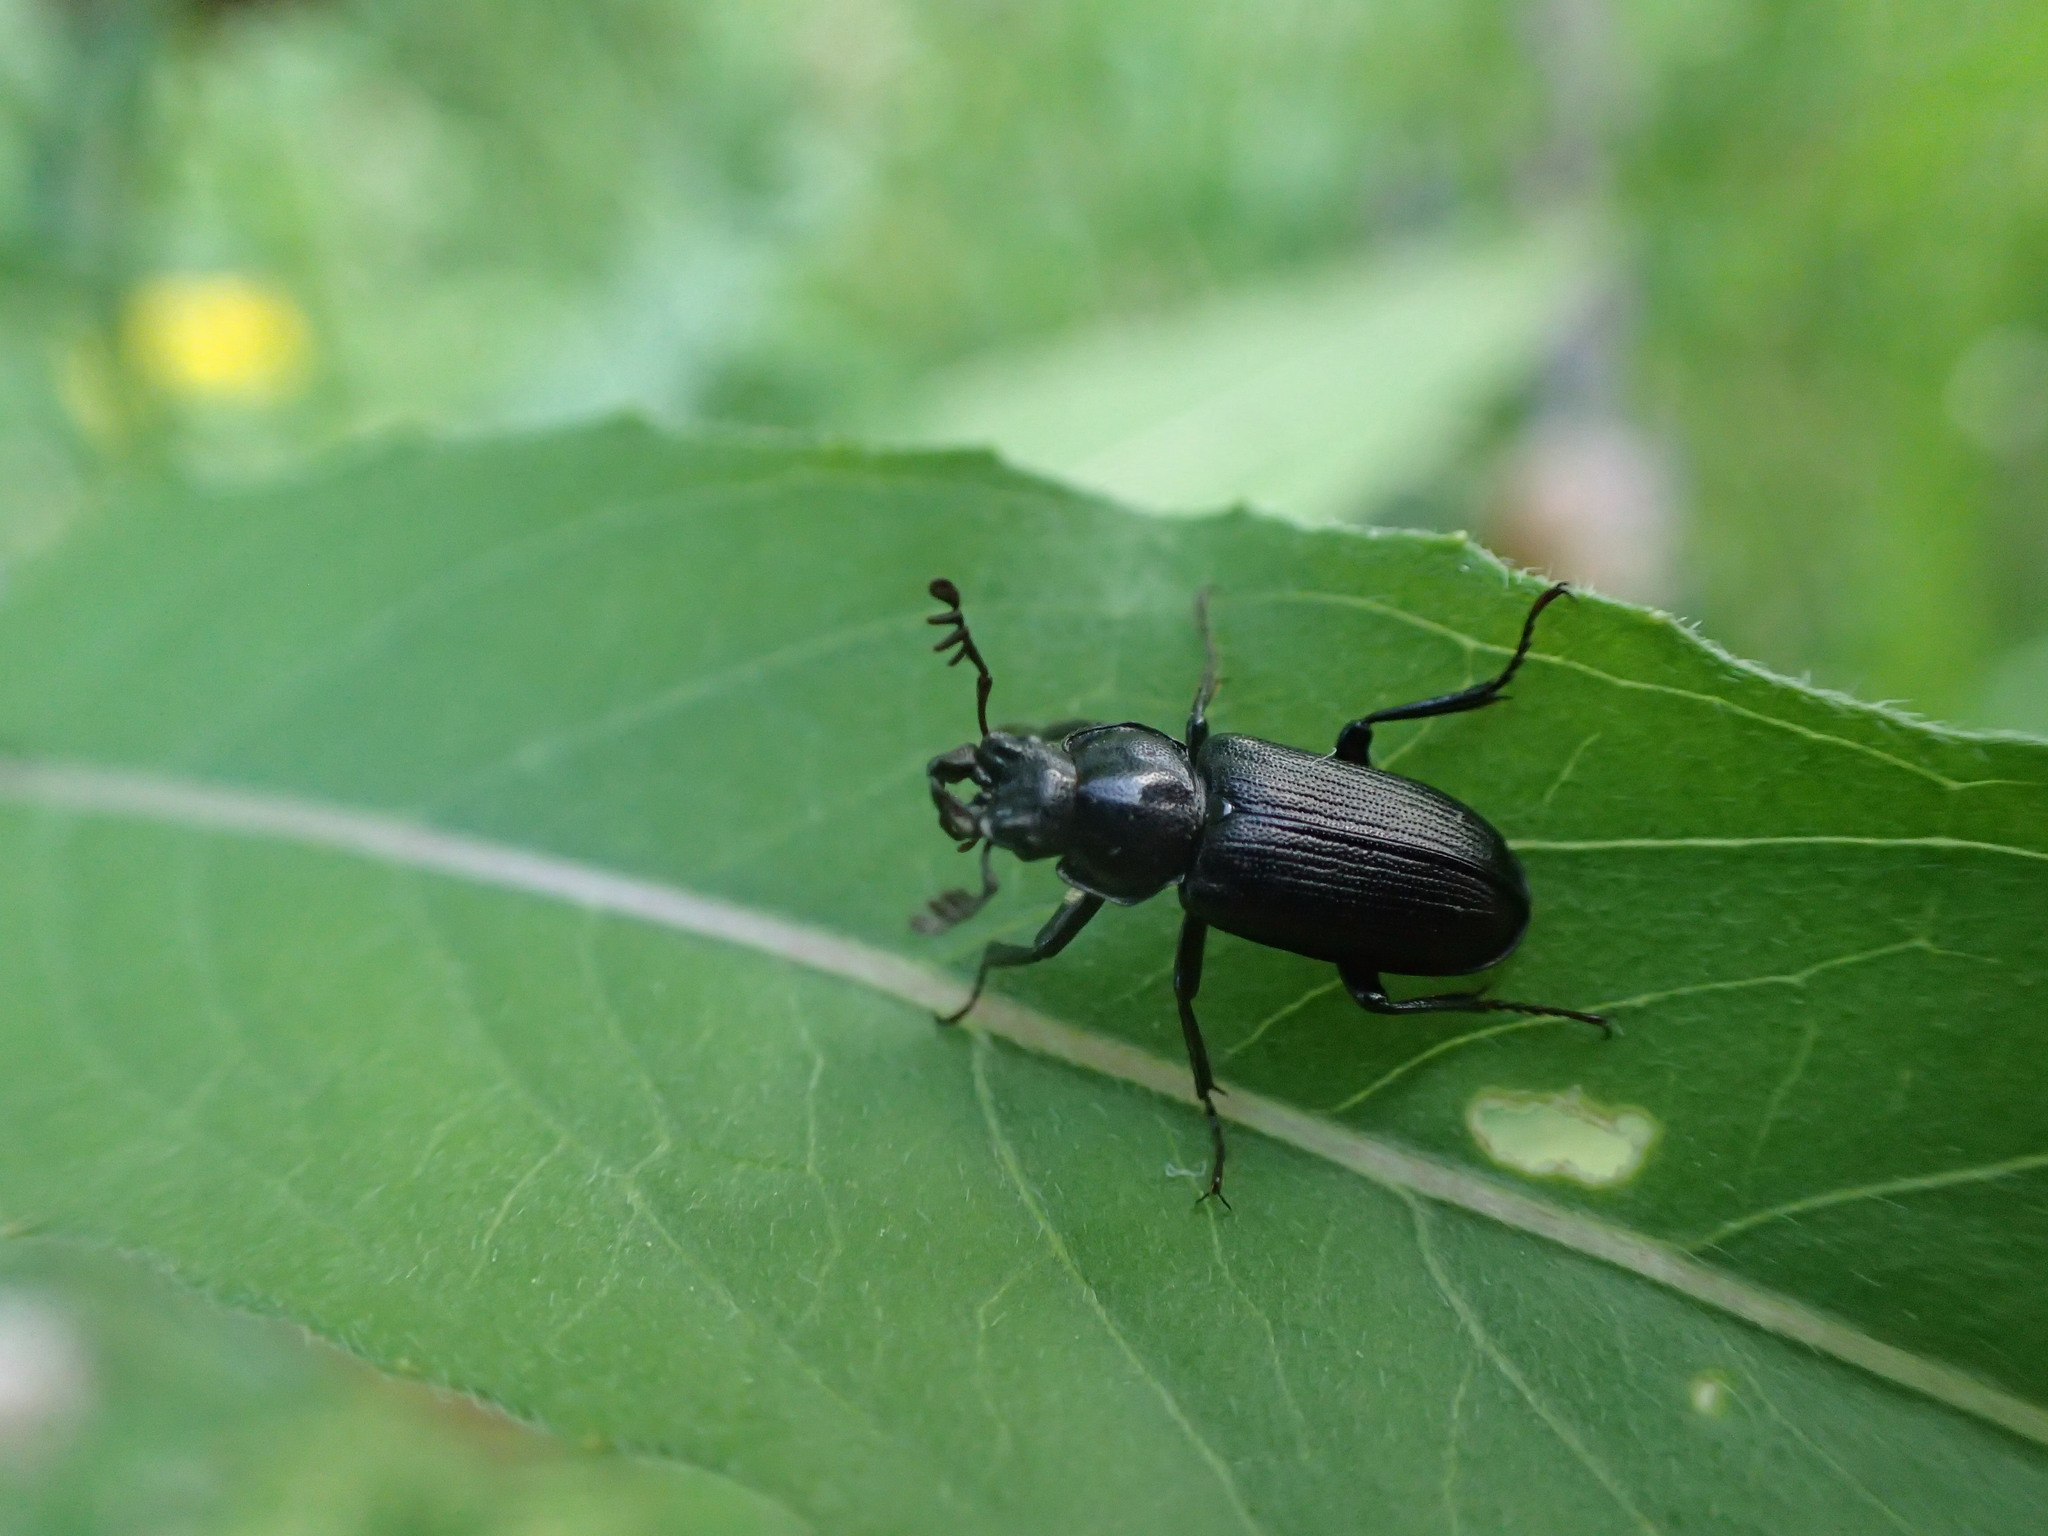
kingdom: Animalia
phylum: Arthropoda
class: Insecta
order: Coleoptera
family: Lucanidae
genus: Platycerus
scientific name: Platycerus depressus
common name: Aspen stag beetle
